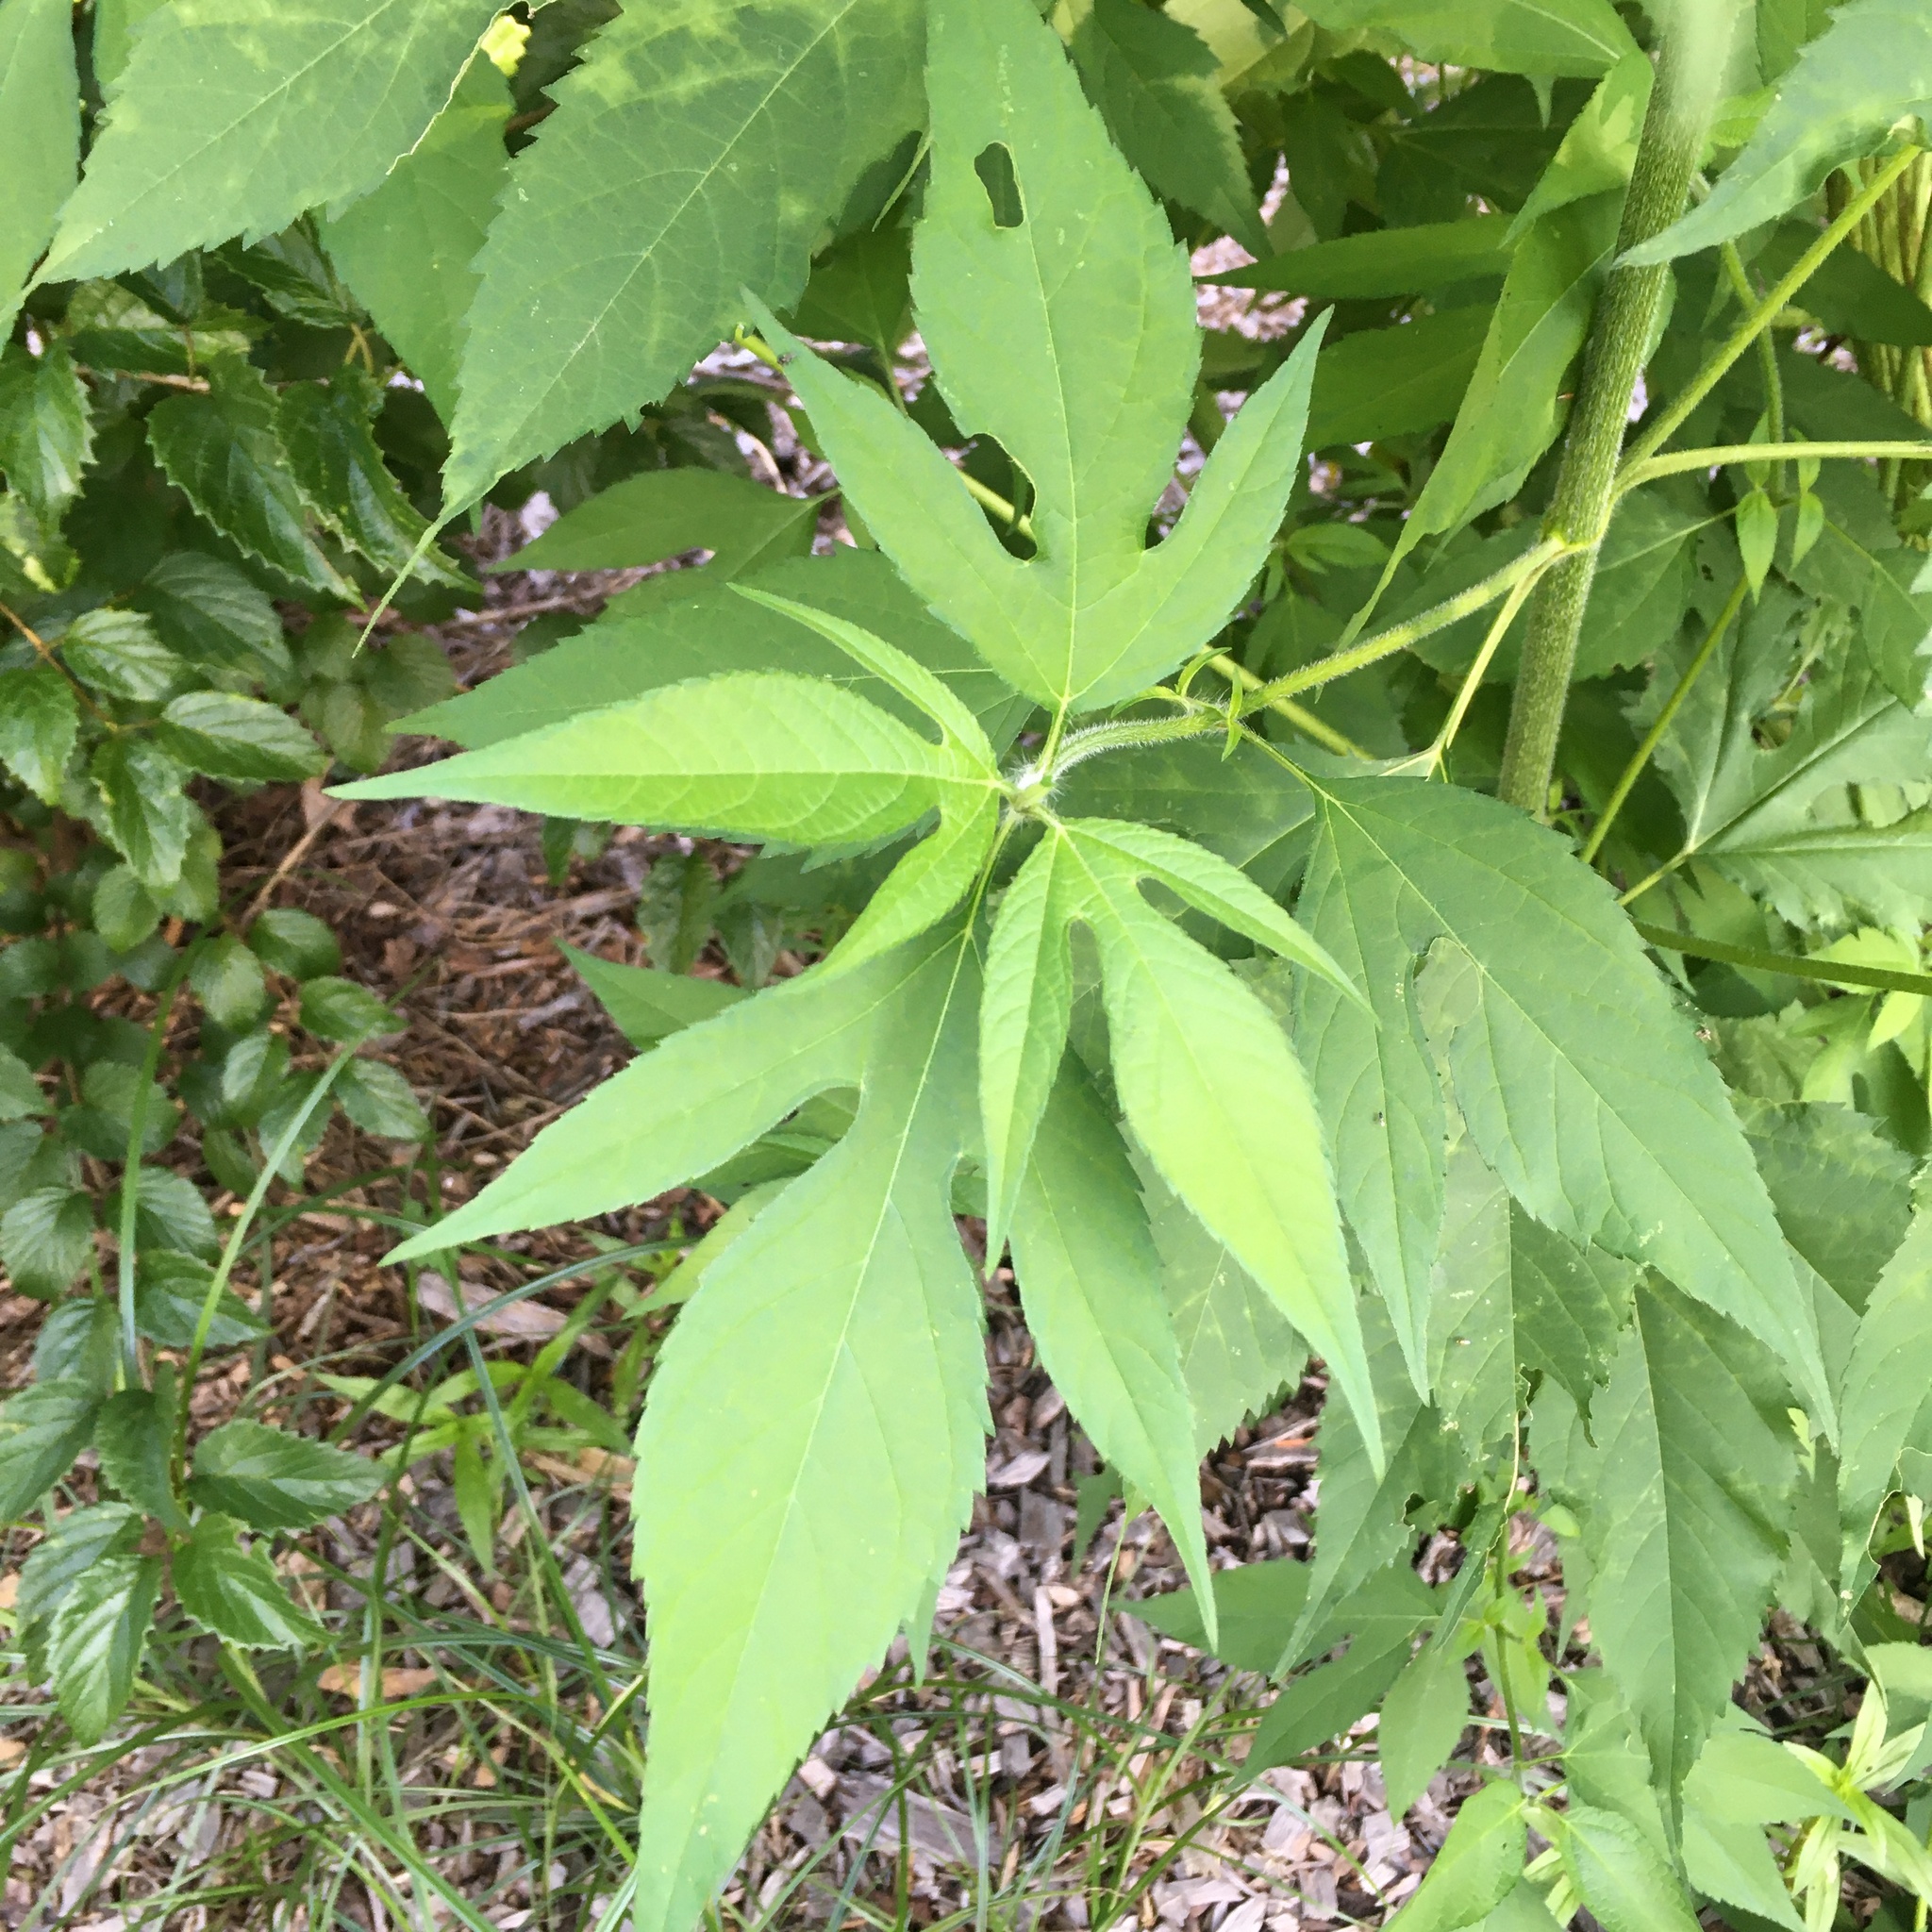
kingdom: Plantae
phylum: Tracheophyta
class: Magnoliopsida
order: Asterales
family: Asteraceae
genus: Ambrosia
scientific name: Ambrosia trifida
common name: Giant ragweed
